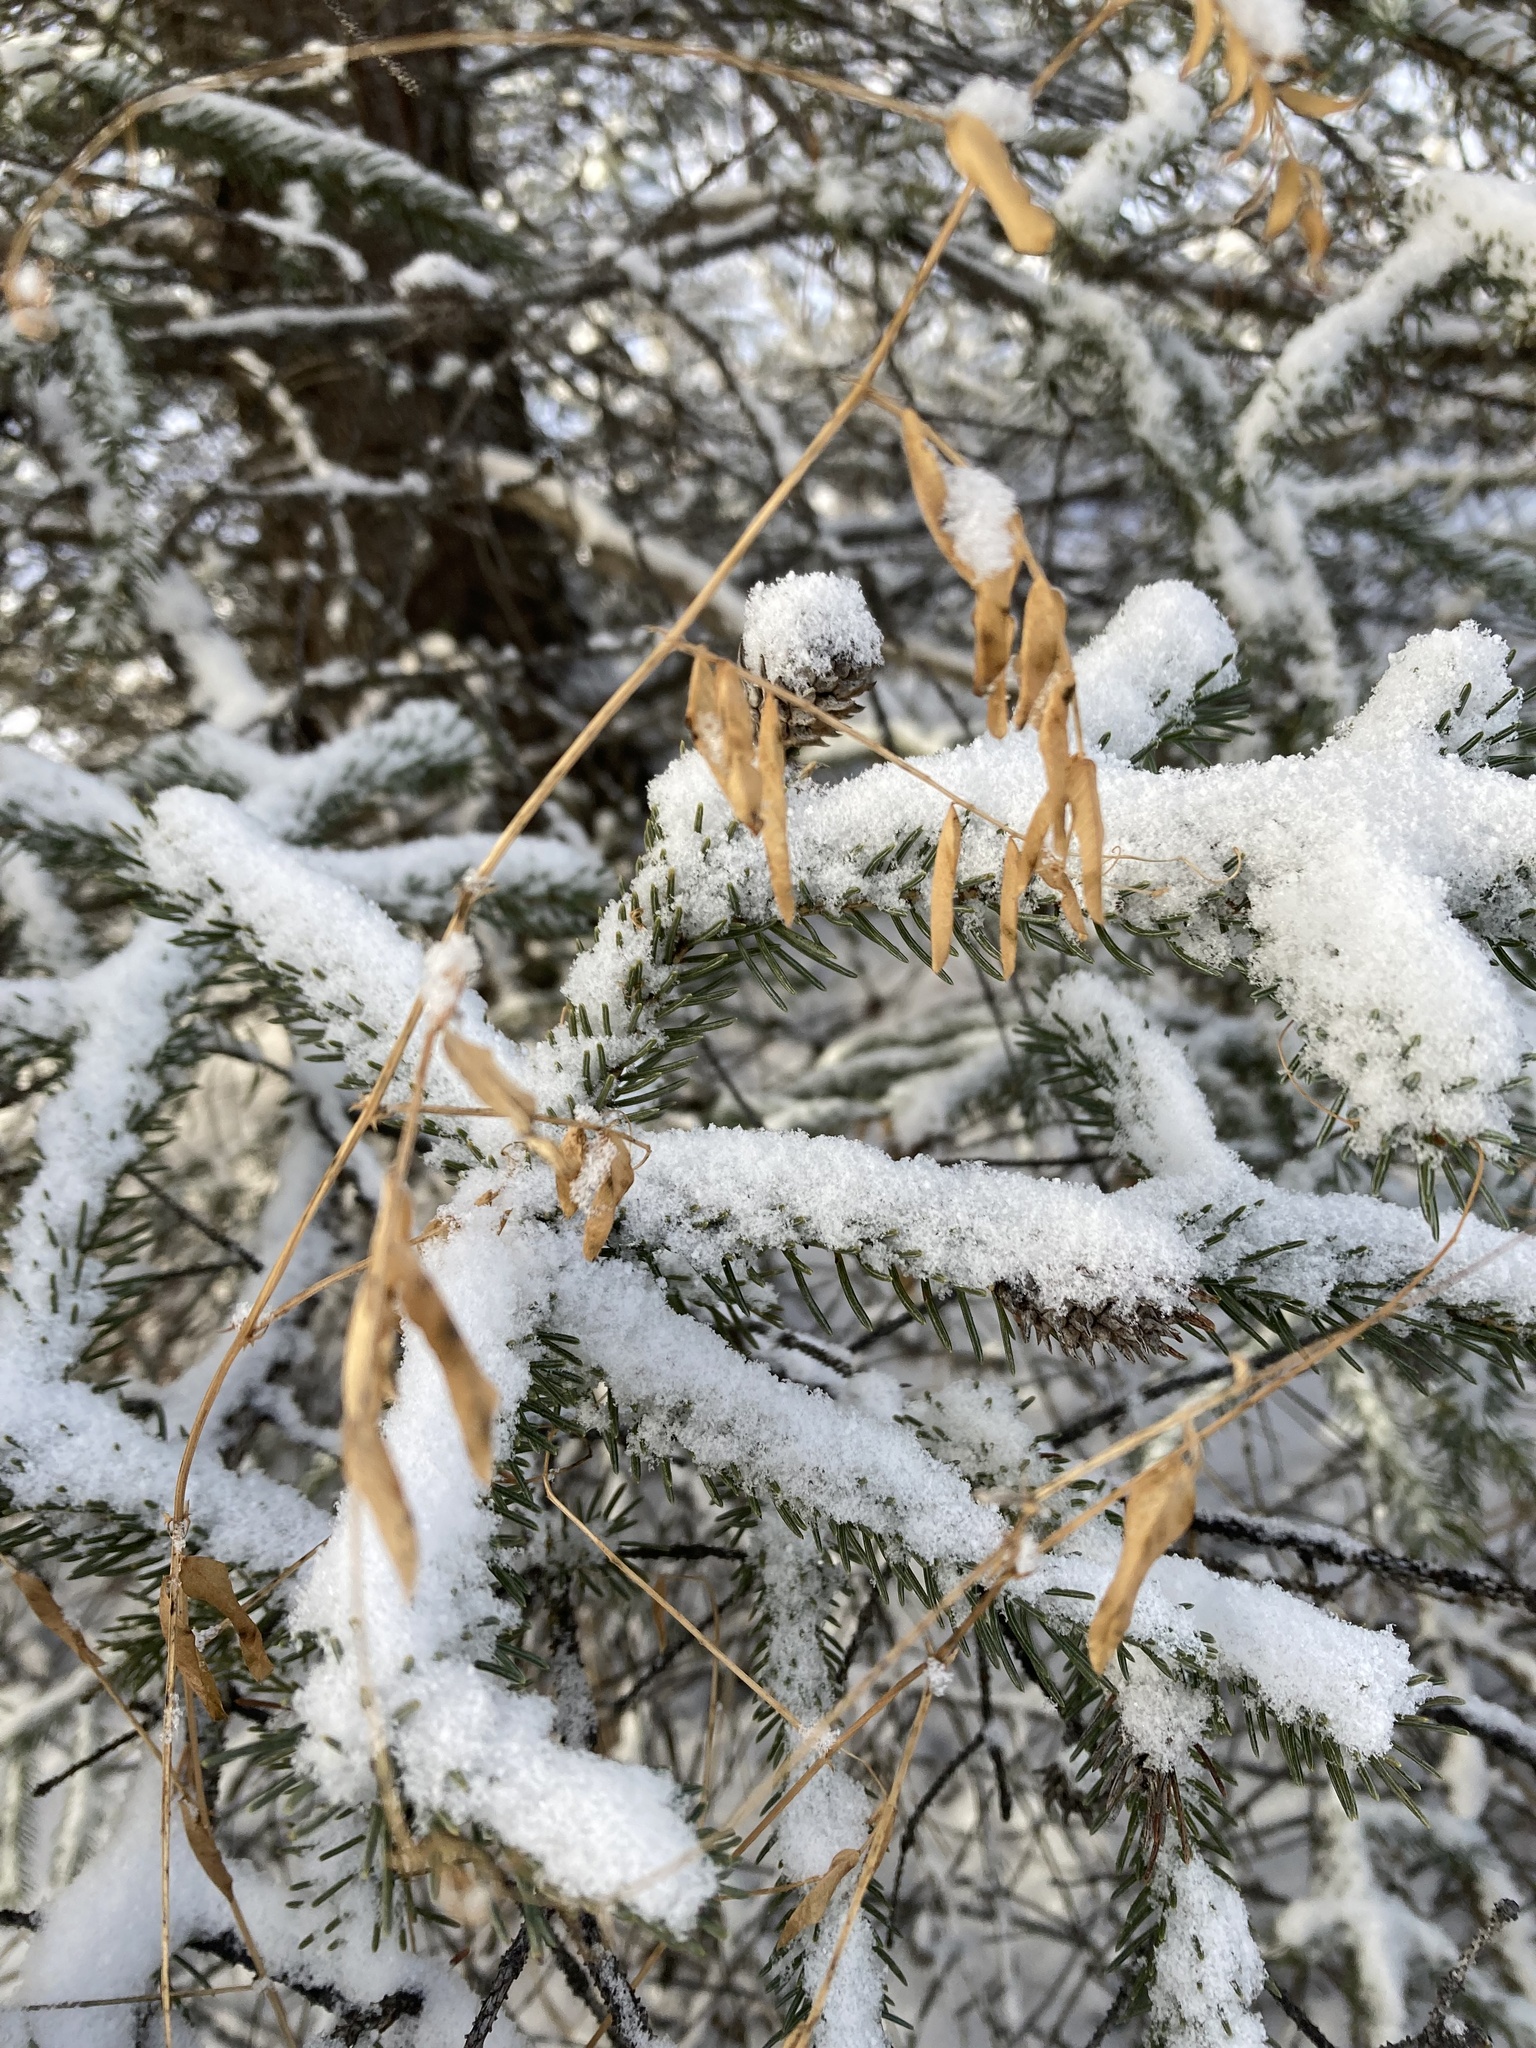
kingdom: Plantae
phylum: Tracheophyta
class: Magnoliopsida
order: Fabales
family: Fabaceae
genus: Vicia
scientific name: Vicia americana
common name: American vetch
